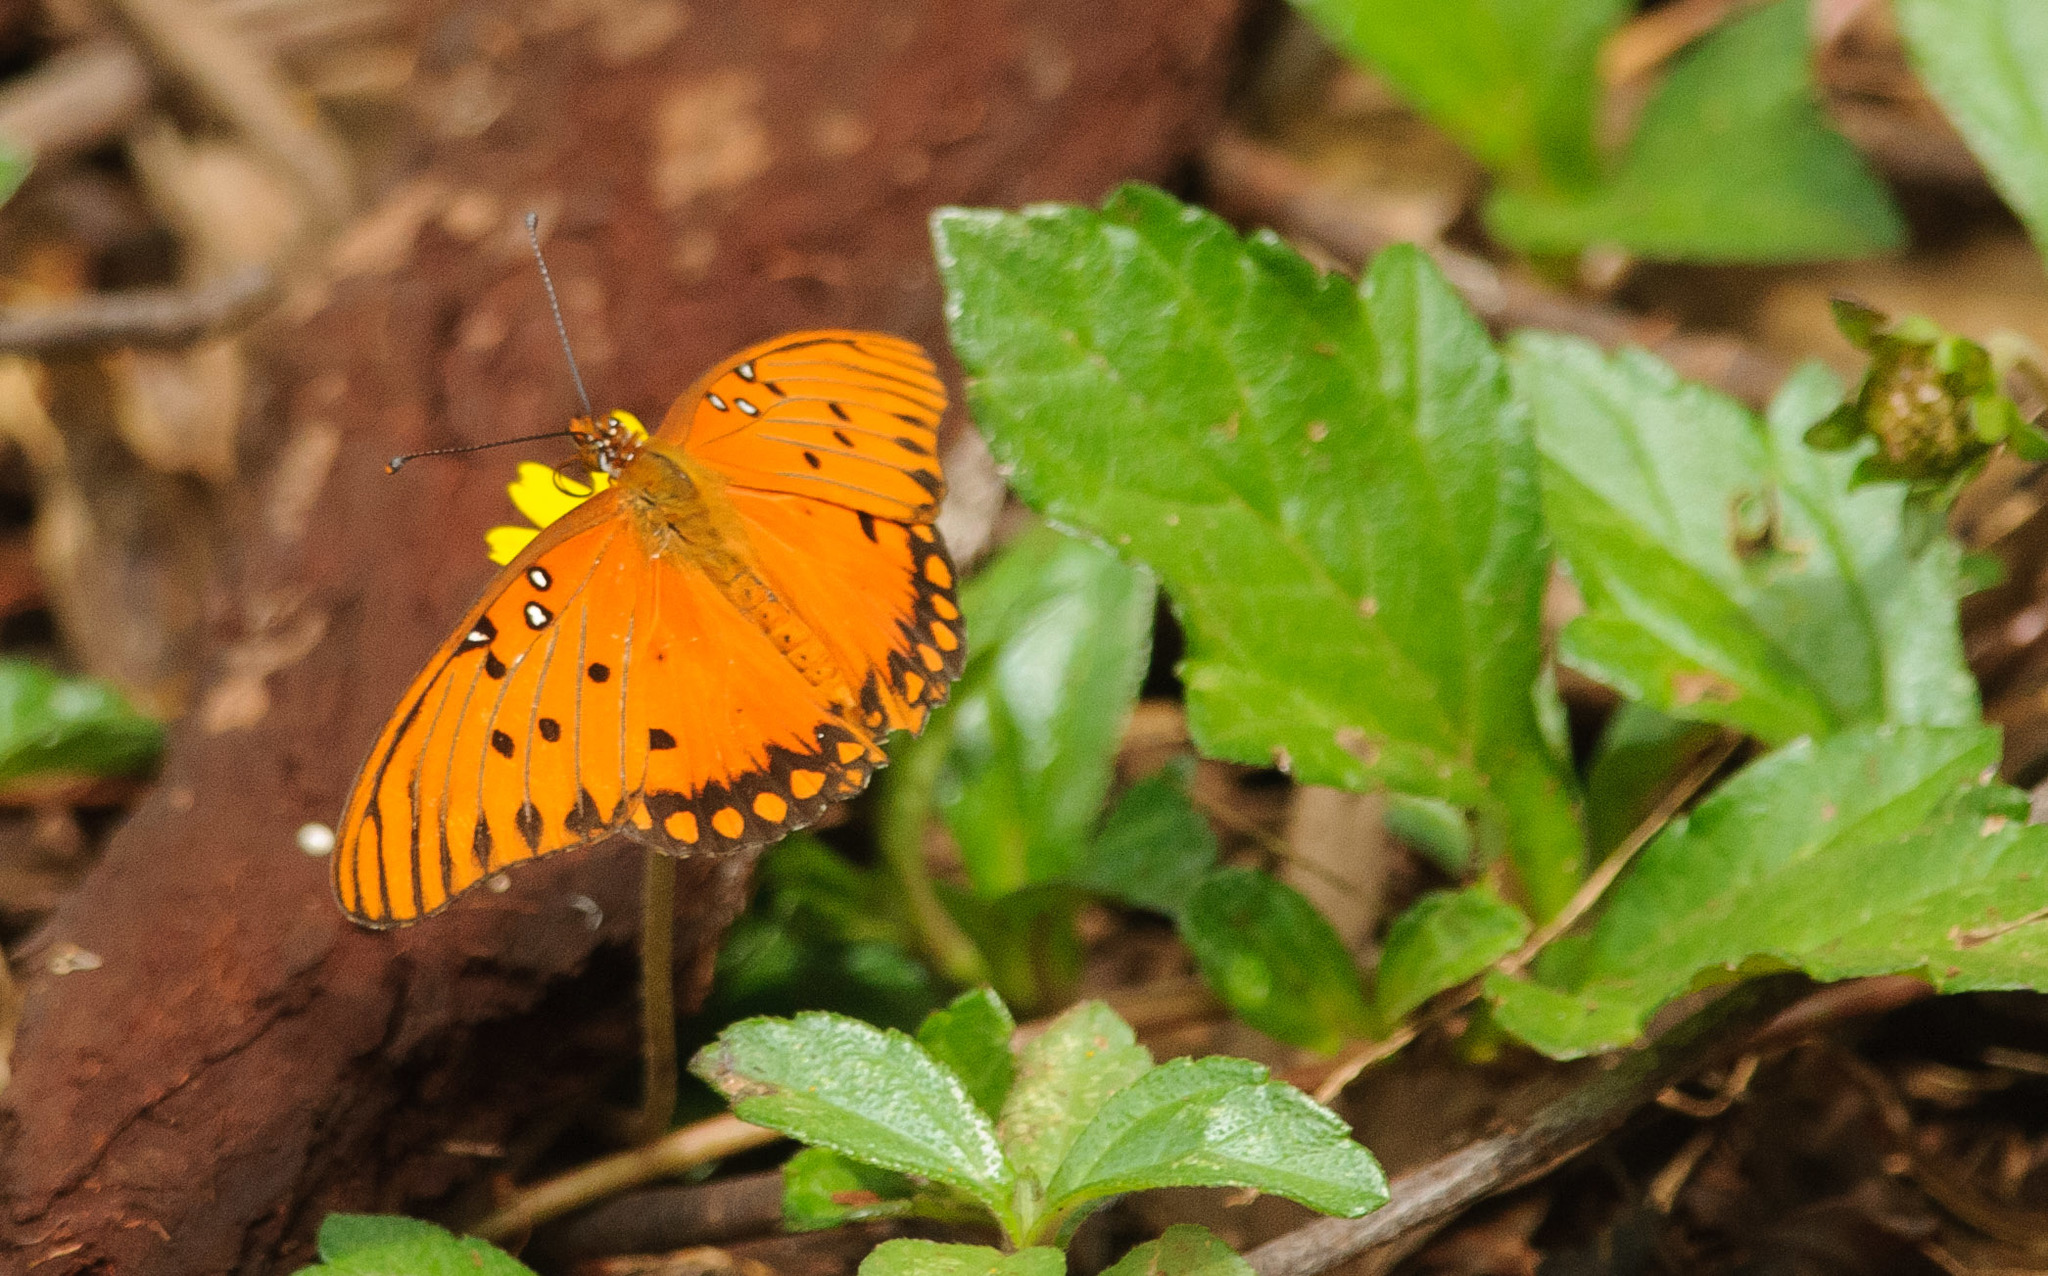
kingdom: Animalia
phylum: Arthropoda
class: Insecta
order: Lepidoptera
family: Nymphalidae
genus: Dione
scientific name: Dione vanillae
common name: Gulf fritillary
